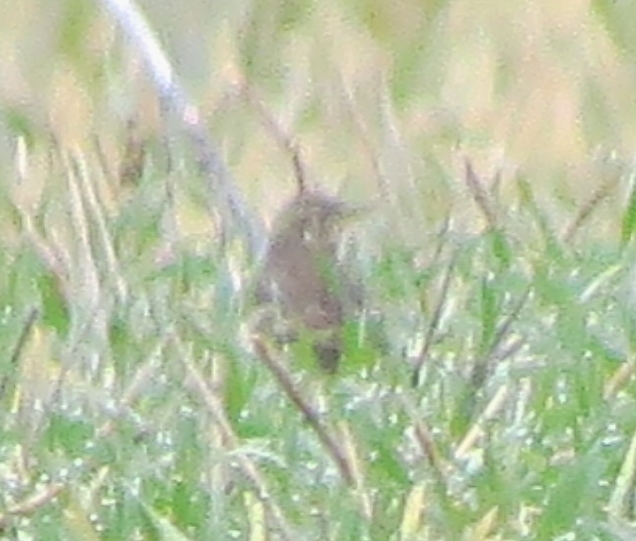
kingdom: Animalia
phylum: Chordata
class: Aves
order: Passeriformes
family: Motacillidae
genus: Anthus
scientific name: Anthus rubescens
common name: Buff-bellied pipit
